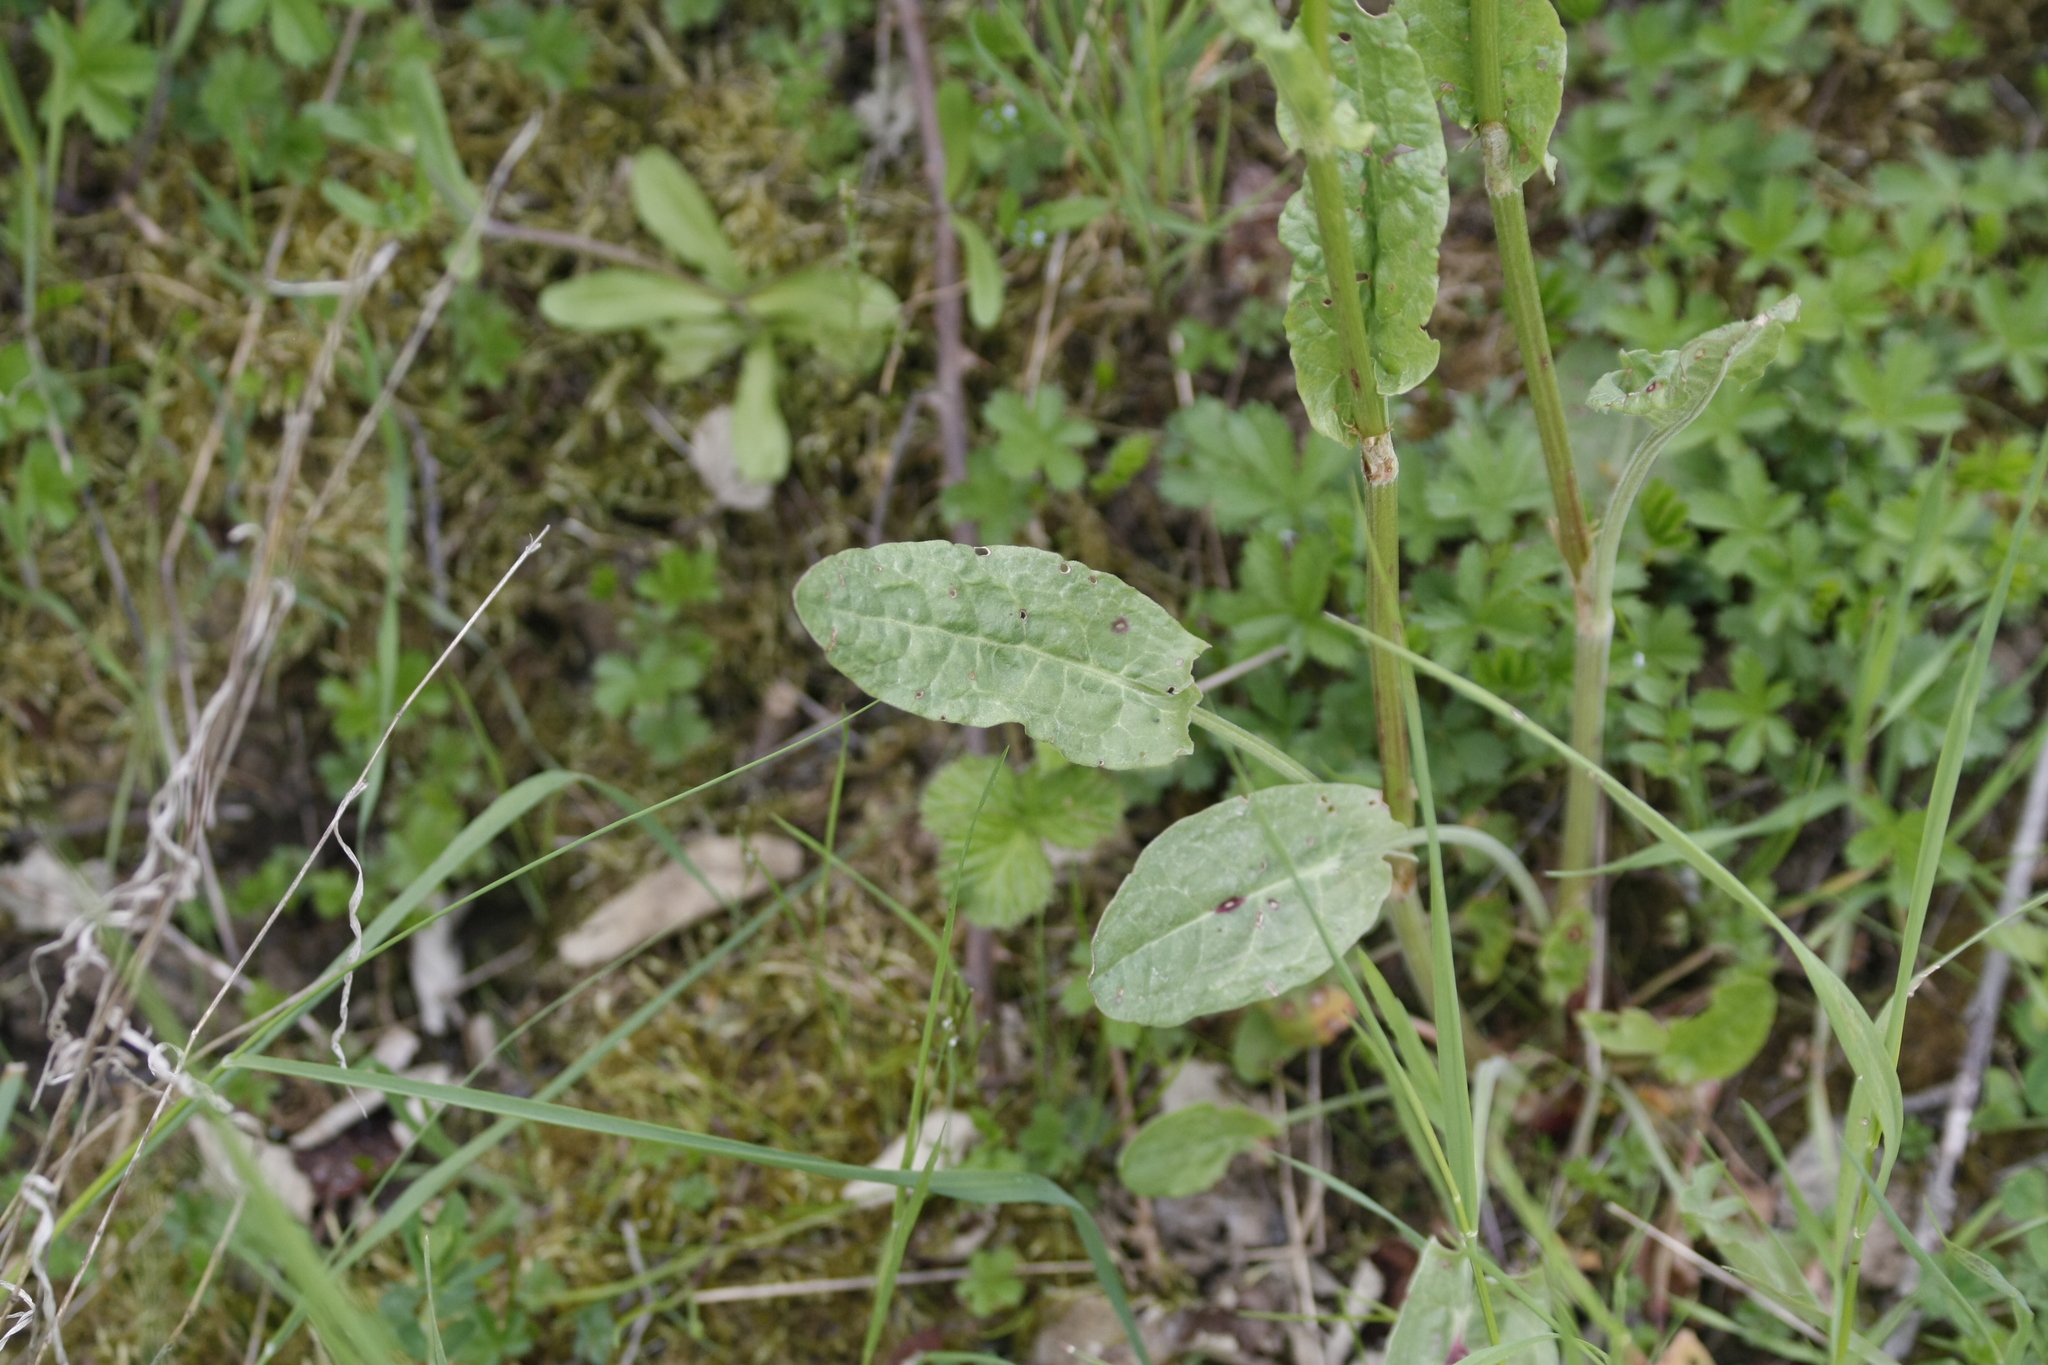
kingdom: Plantae
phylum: Tracheophyta
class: Magnoliopsida
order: Caryophyllales
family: Polygonaceae
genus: Rumex
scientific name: Rumex acetosa
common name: Garden sorrel
